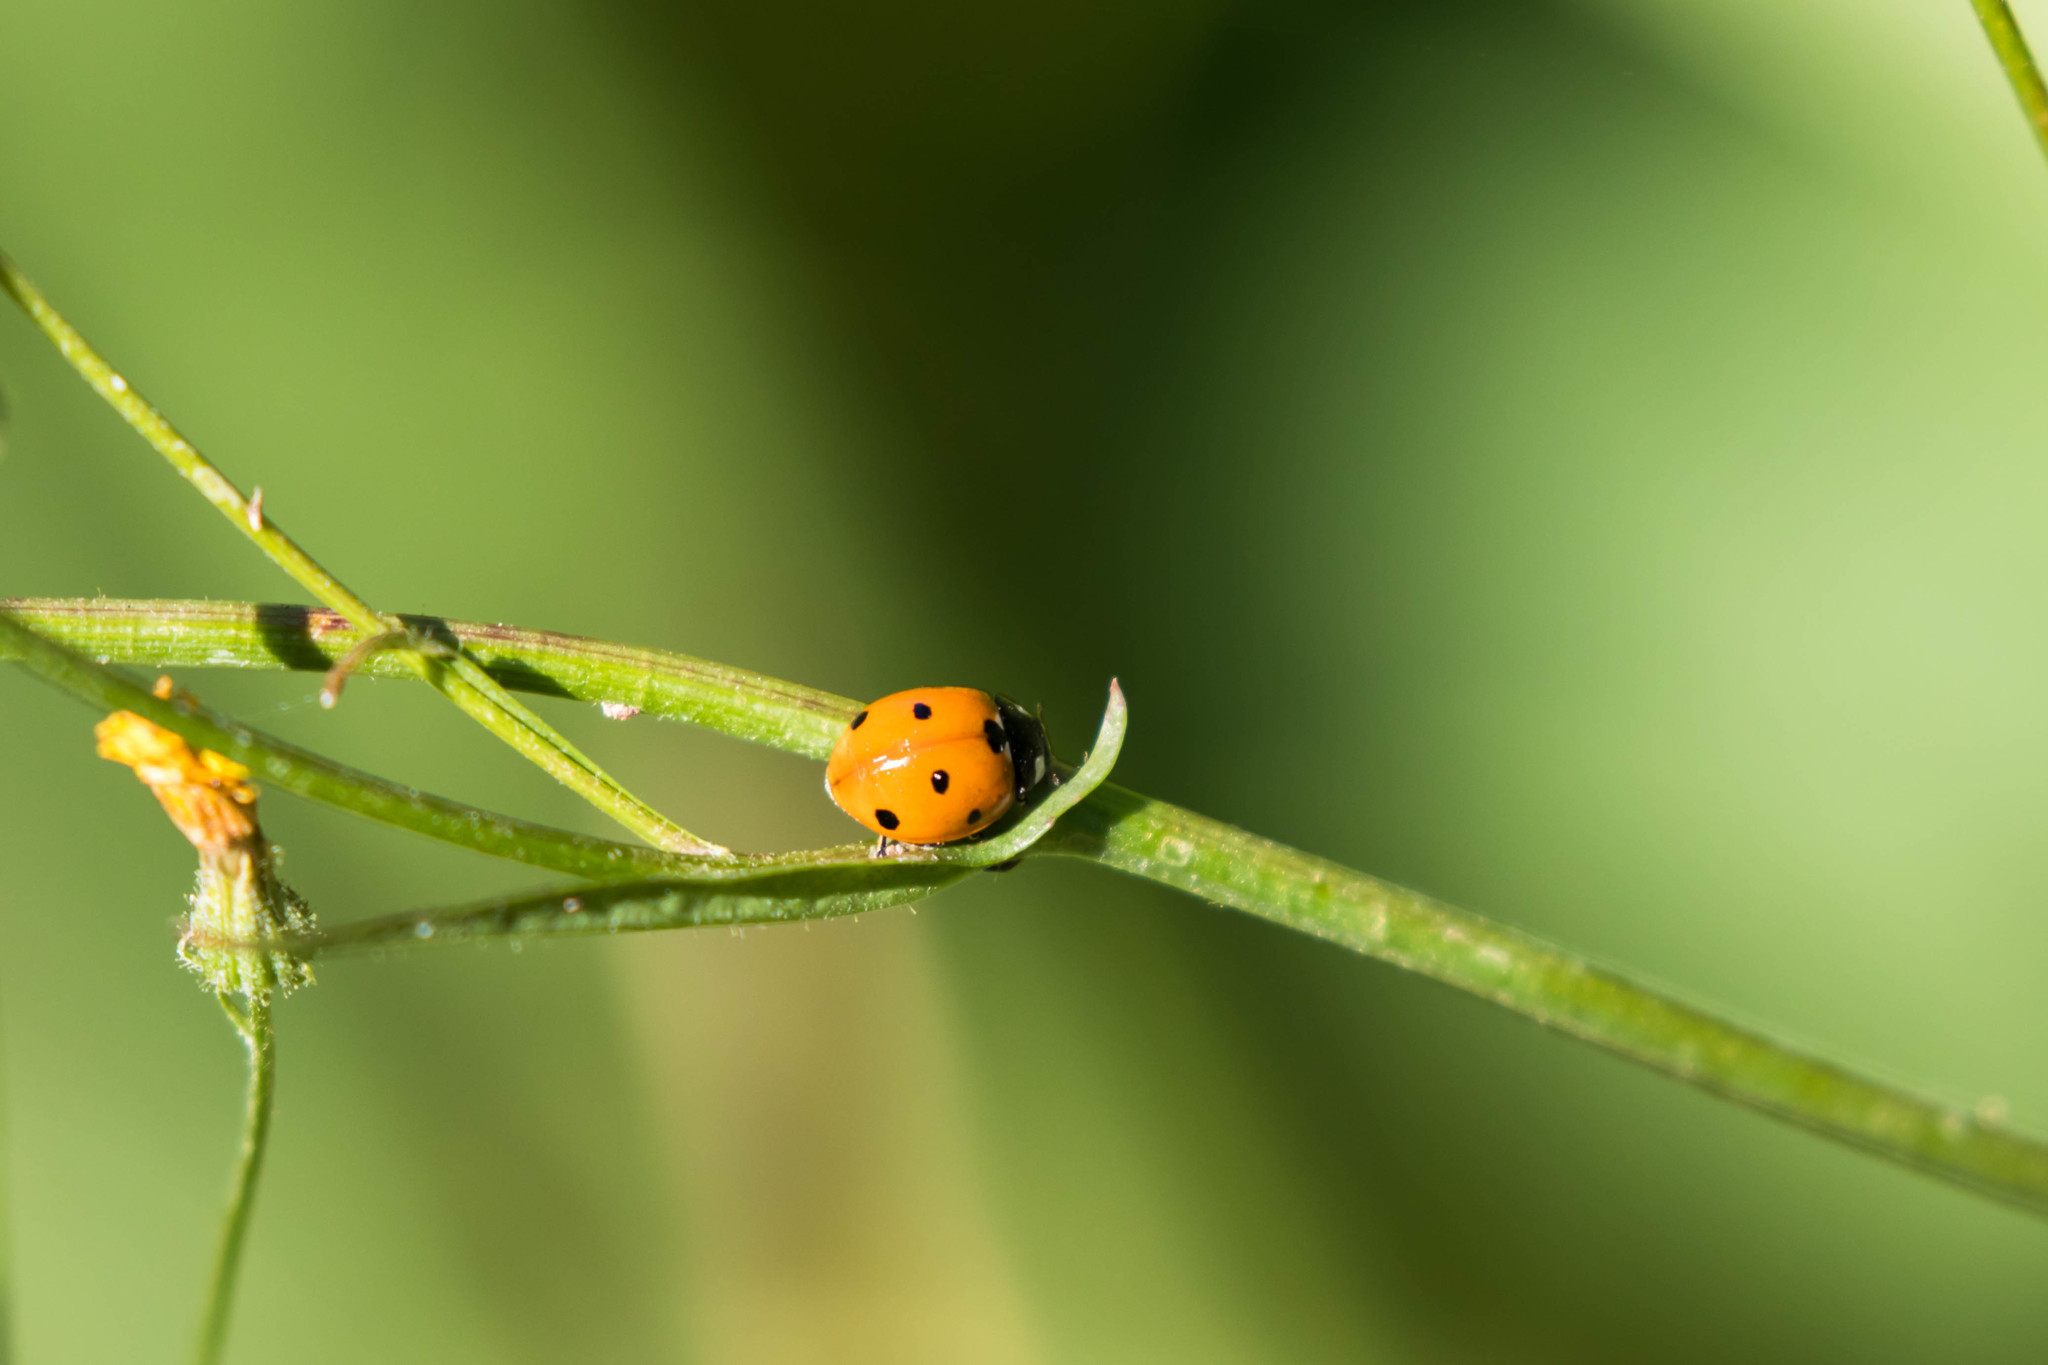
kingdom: Animalia
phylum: Arthropoda
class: Insecta
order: Coleoptera
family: Coccinellidae
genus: Coccinella
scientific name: Coccinella septempunctata
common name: Sevenspotted lady beetle
